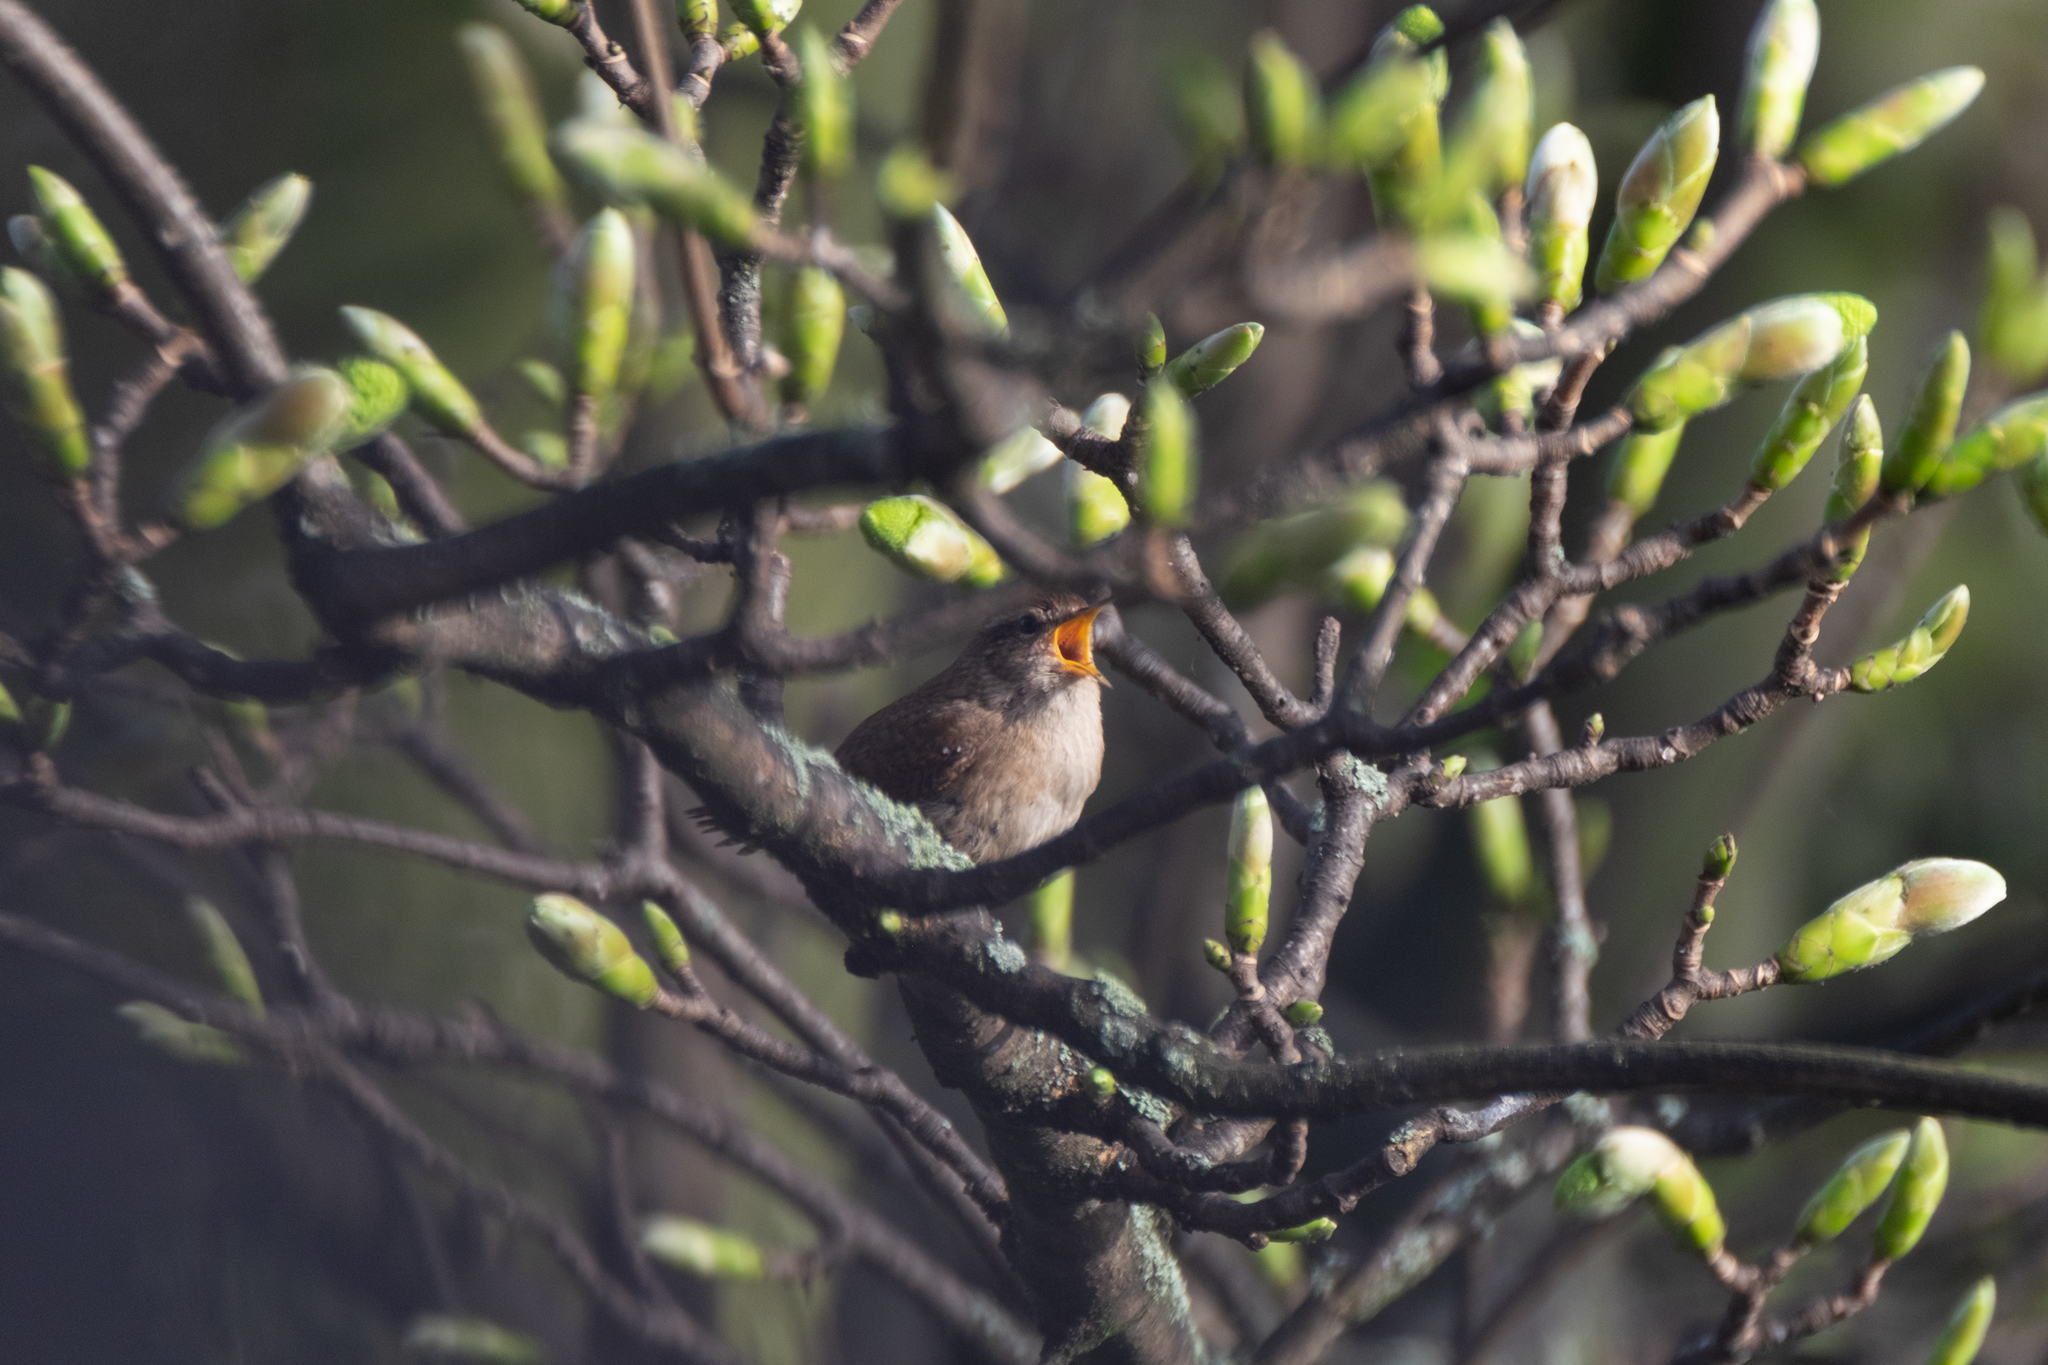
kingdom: Animalia
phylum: Chordata
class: Aves
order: Passeriformes
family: Troglodytidae
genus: Troglodytes
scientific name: Troglodytes troglodytes
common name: Eurasian wren
